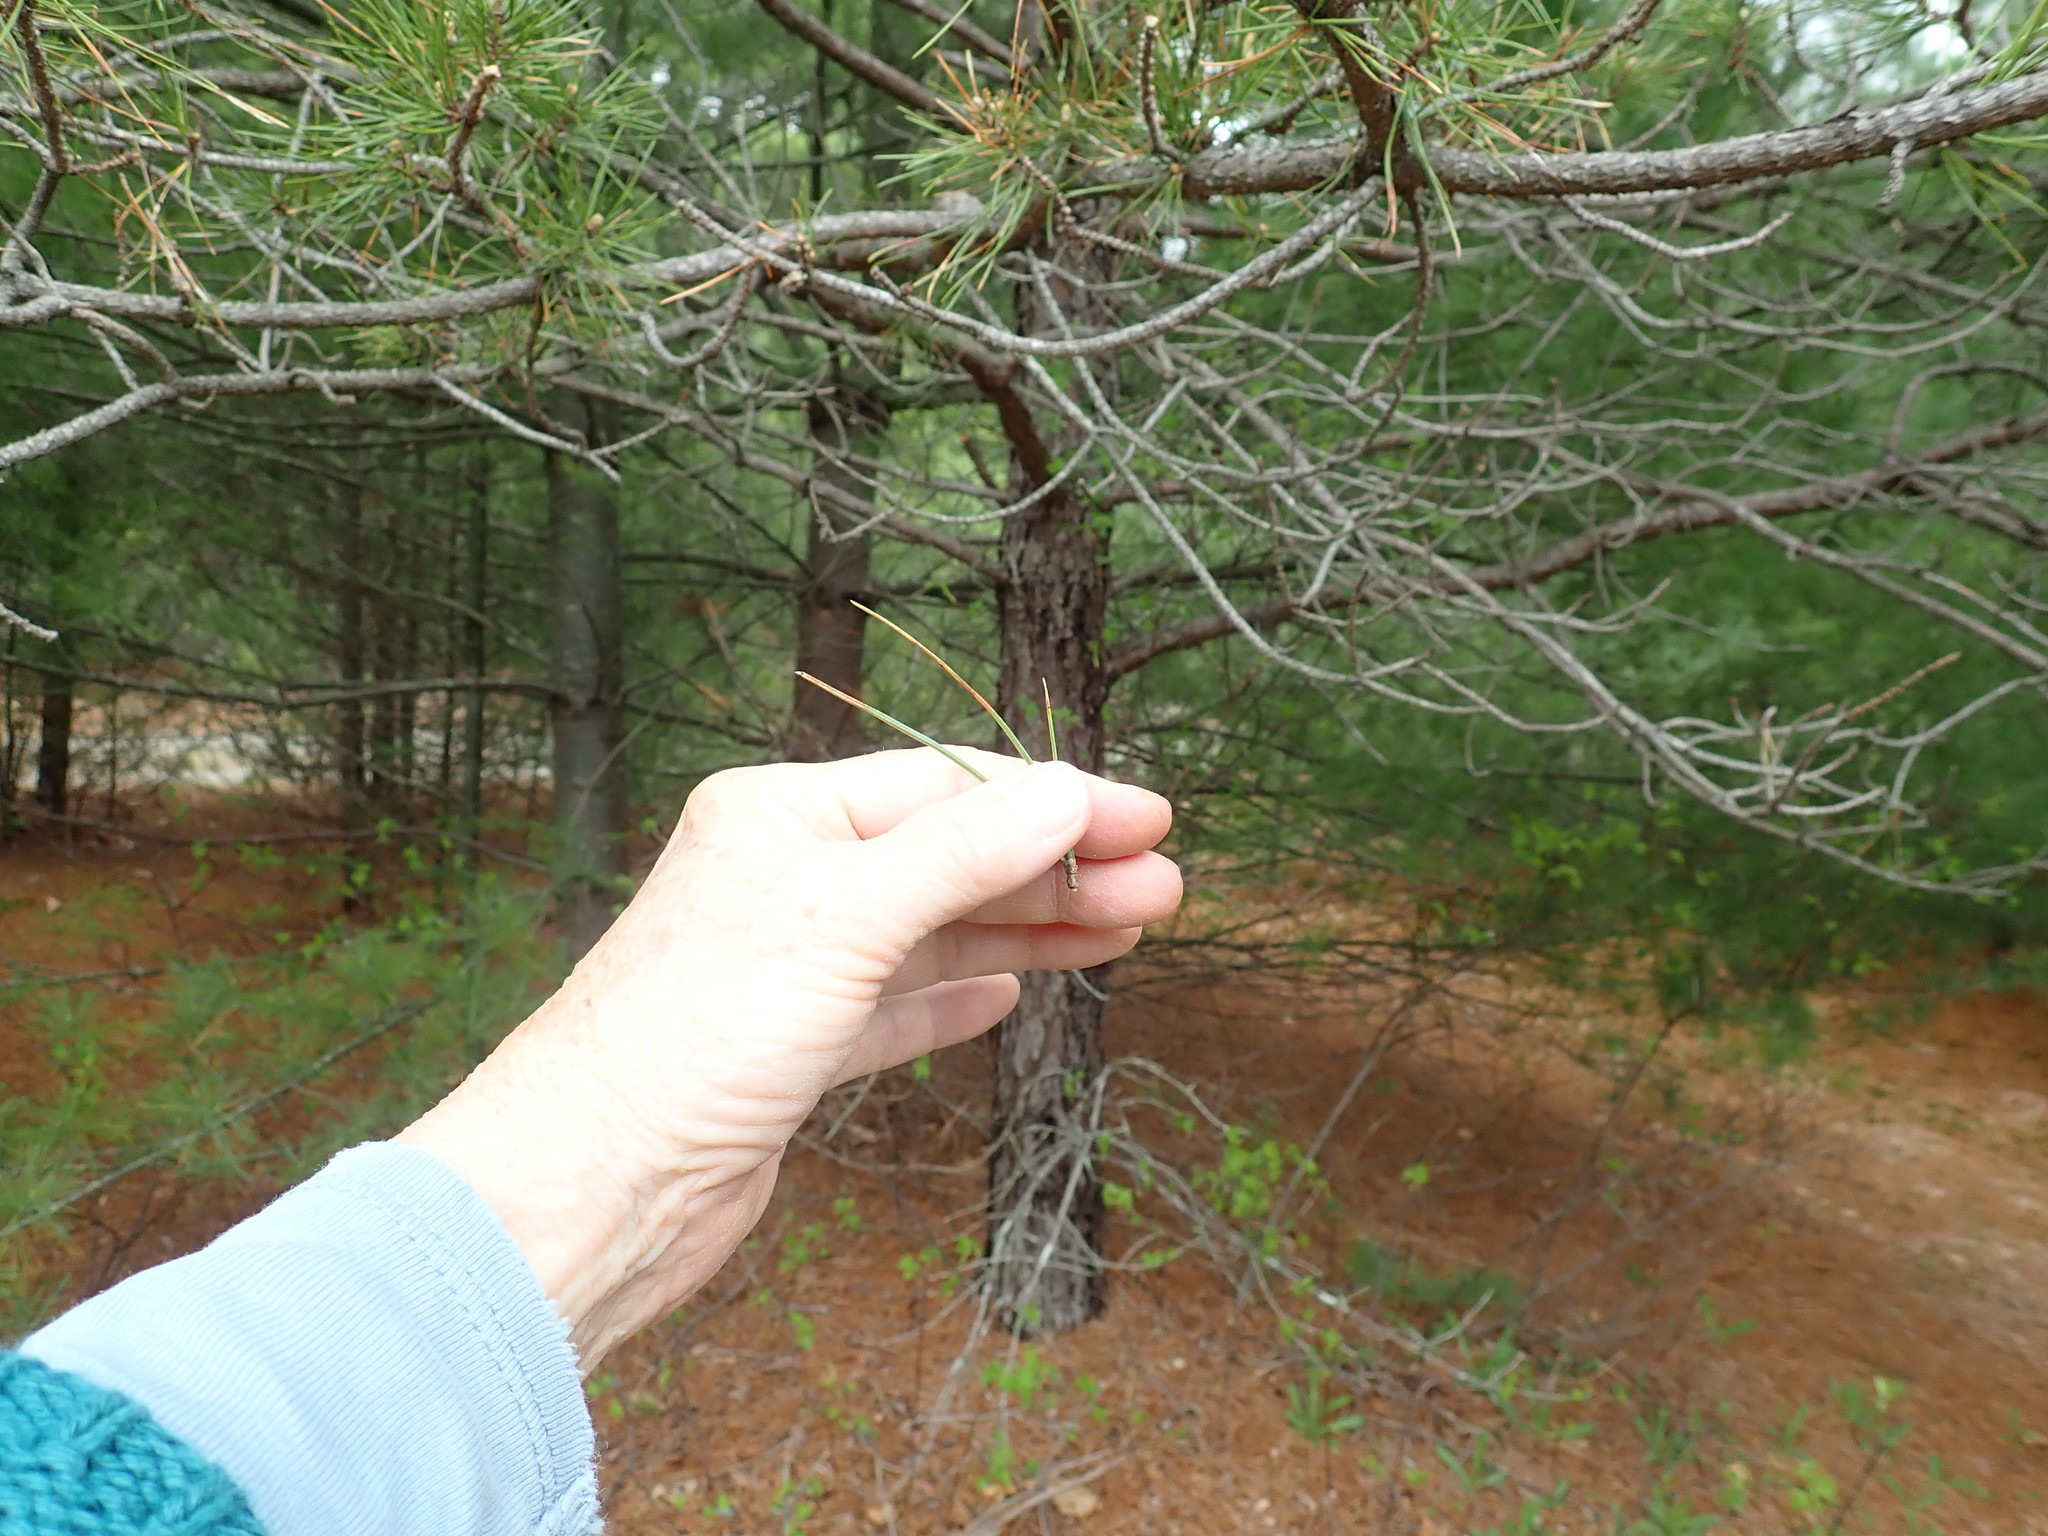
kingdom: Plantae
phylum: Tracheophyta
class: Pinopsida
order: Pinales
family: Pinaceae
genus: Pinus
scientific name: Pinus rigida
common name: Pitch pine
